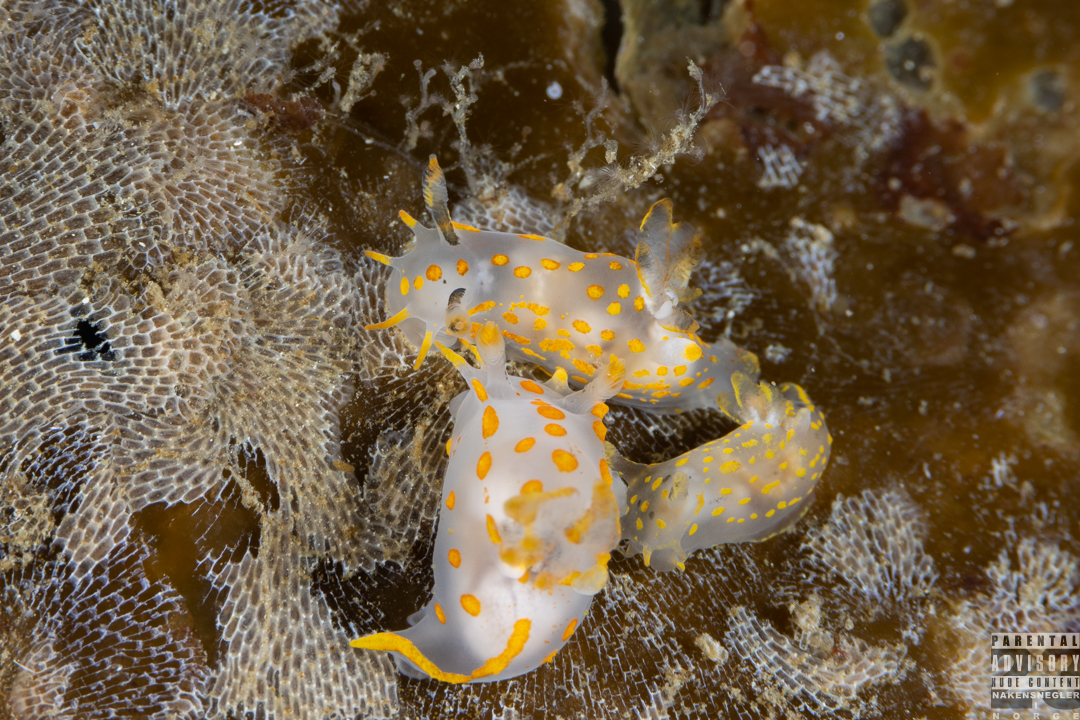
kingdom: Animalia
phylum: Mollusca
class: Gastropoda
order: Nudibranchia
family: Polyceridae
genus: Polycera
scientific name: Polycera quadrilineata
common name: Four-striped polycera
